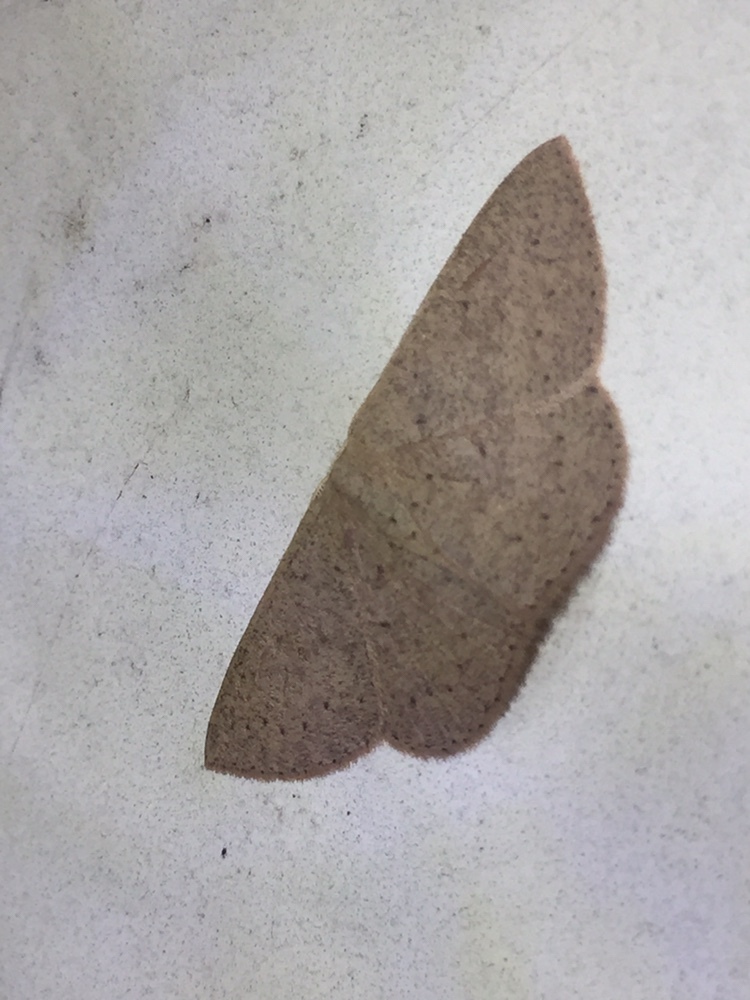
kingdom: Animalia
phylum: Arthropoda
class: Insecta
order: Lepidoptera
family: Geometridae
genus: Cyclophora
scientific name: Cyclophora obstataria
